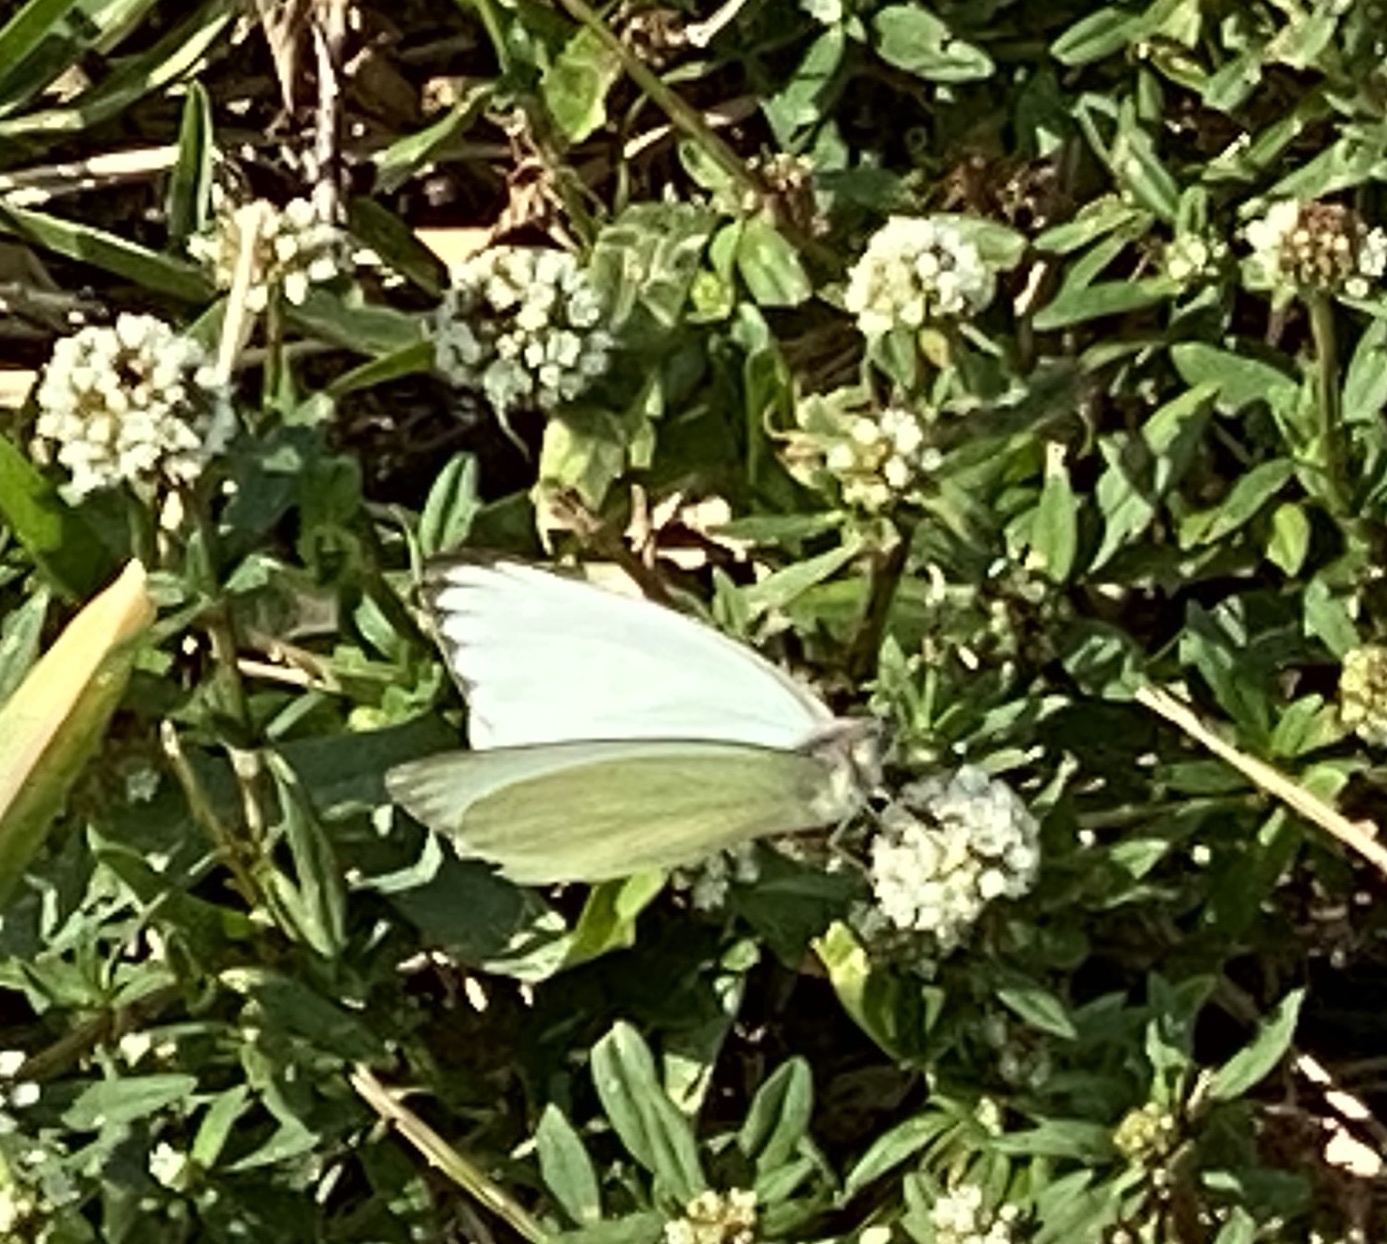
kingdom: Animalia
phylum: Arthropoda
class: Insecta
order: Lepidoptera
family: Pieridae
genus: Ascia
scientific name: Ascia monuste
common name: Great southern white
